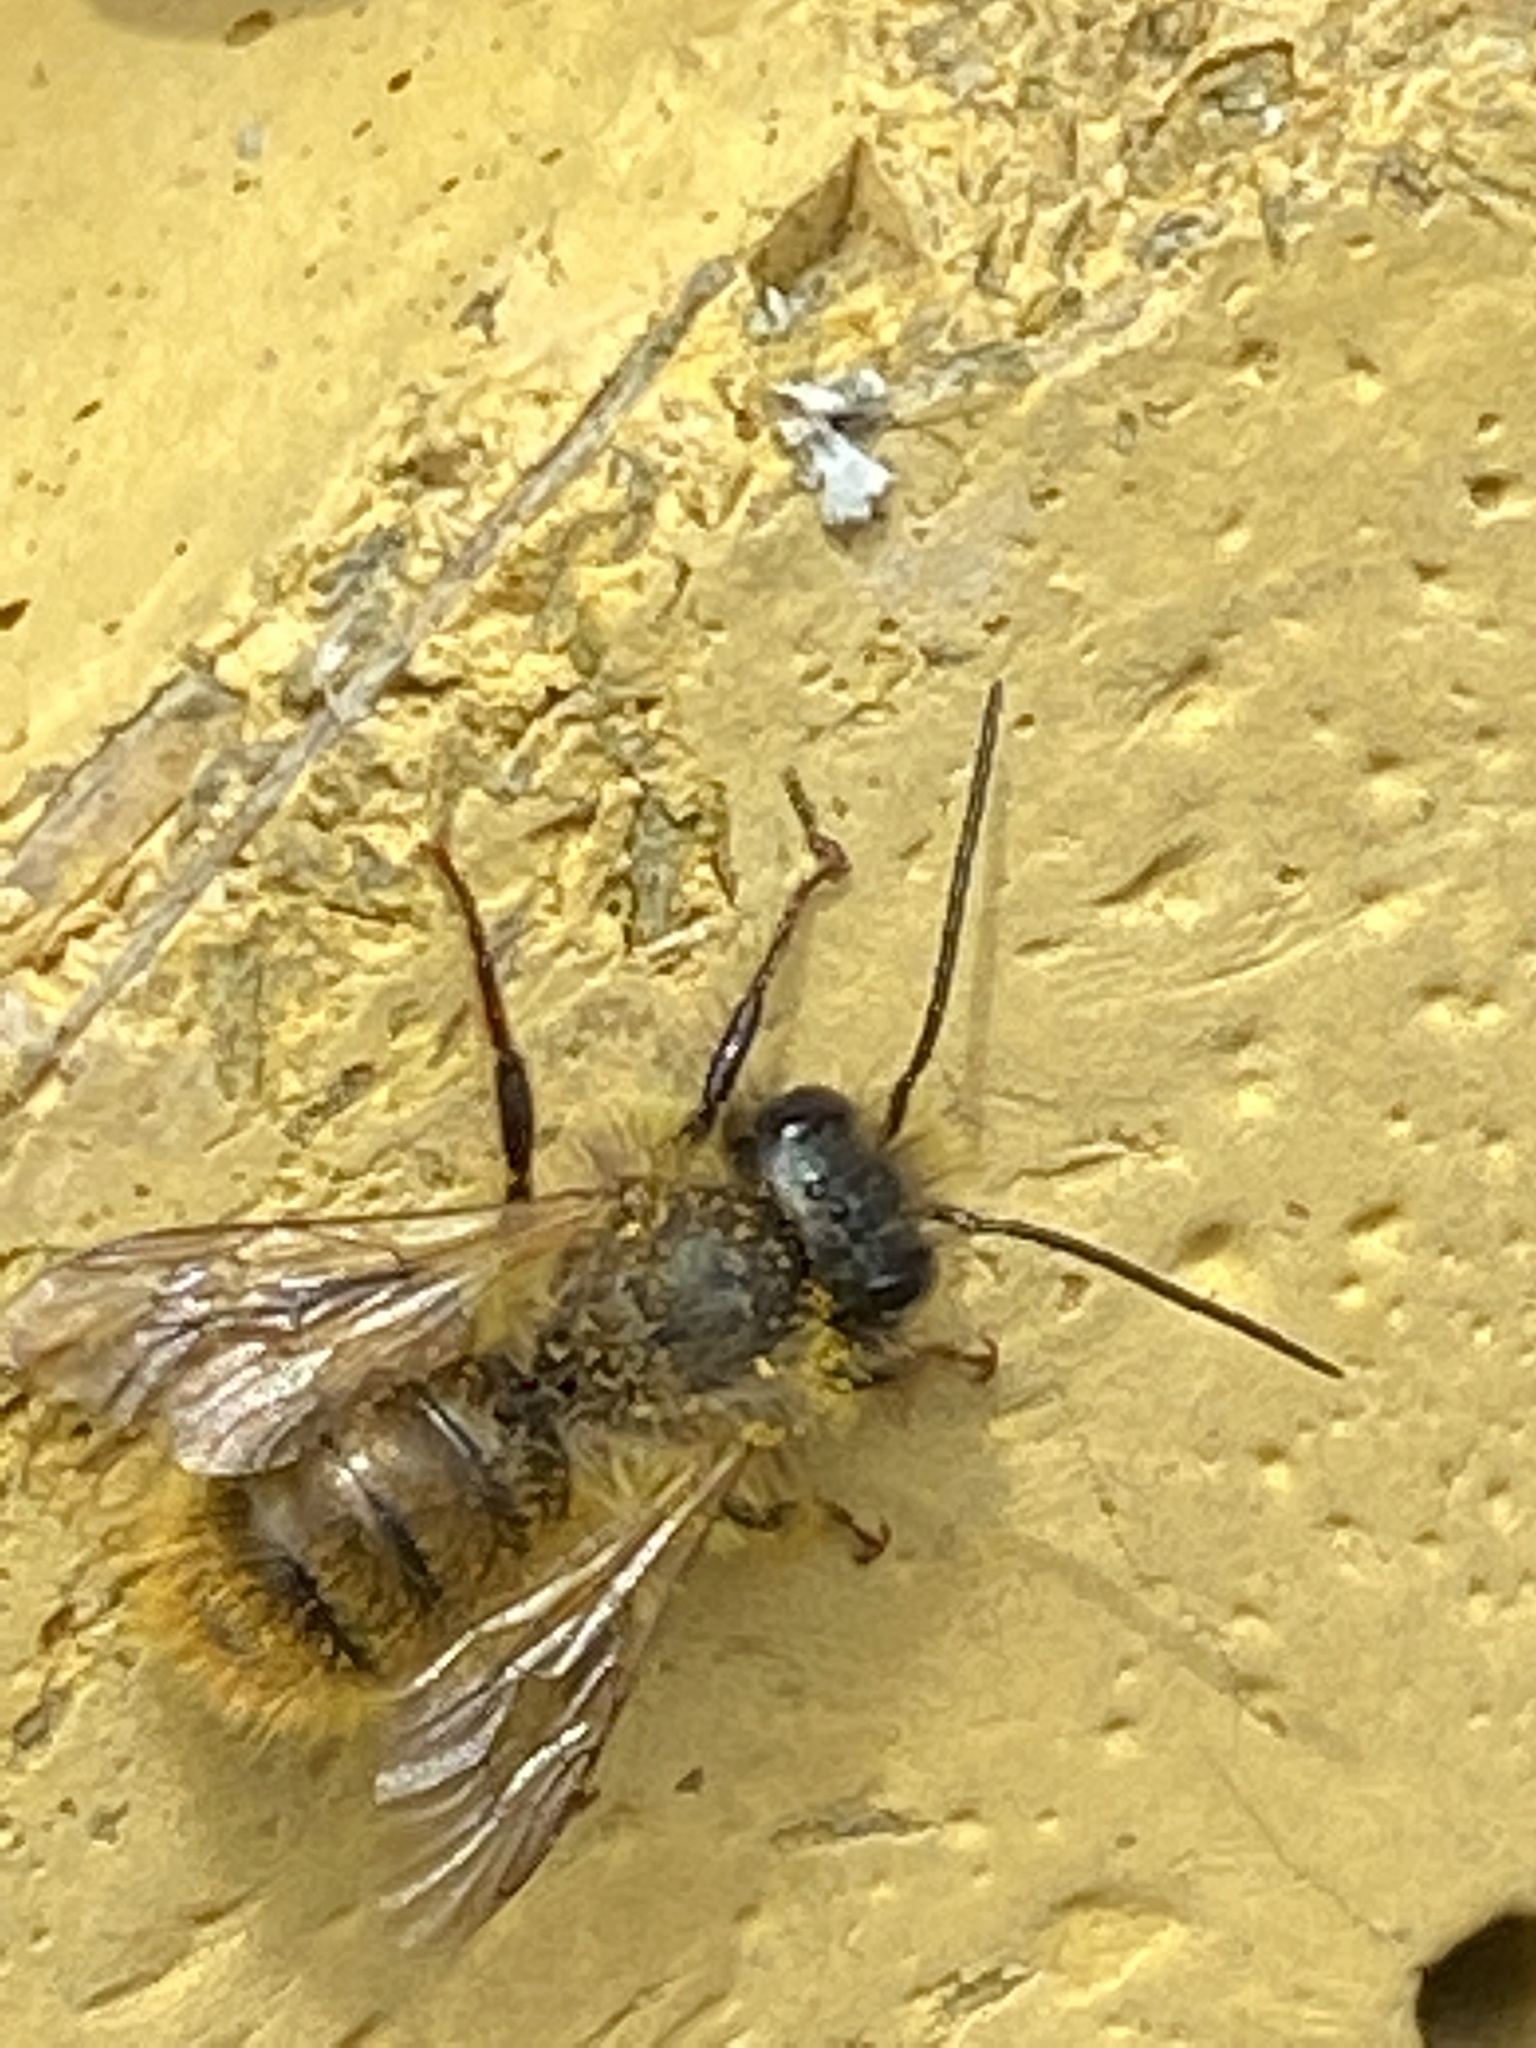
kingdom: Animalia
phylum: Arthropoda
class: Insecta
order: Hymenoptera
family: Megachilidae
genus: Osmia
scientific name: Osmia bicornis
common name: Red mason bee
